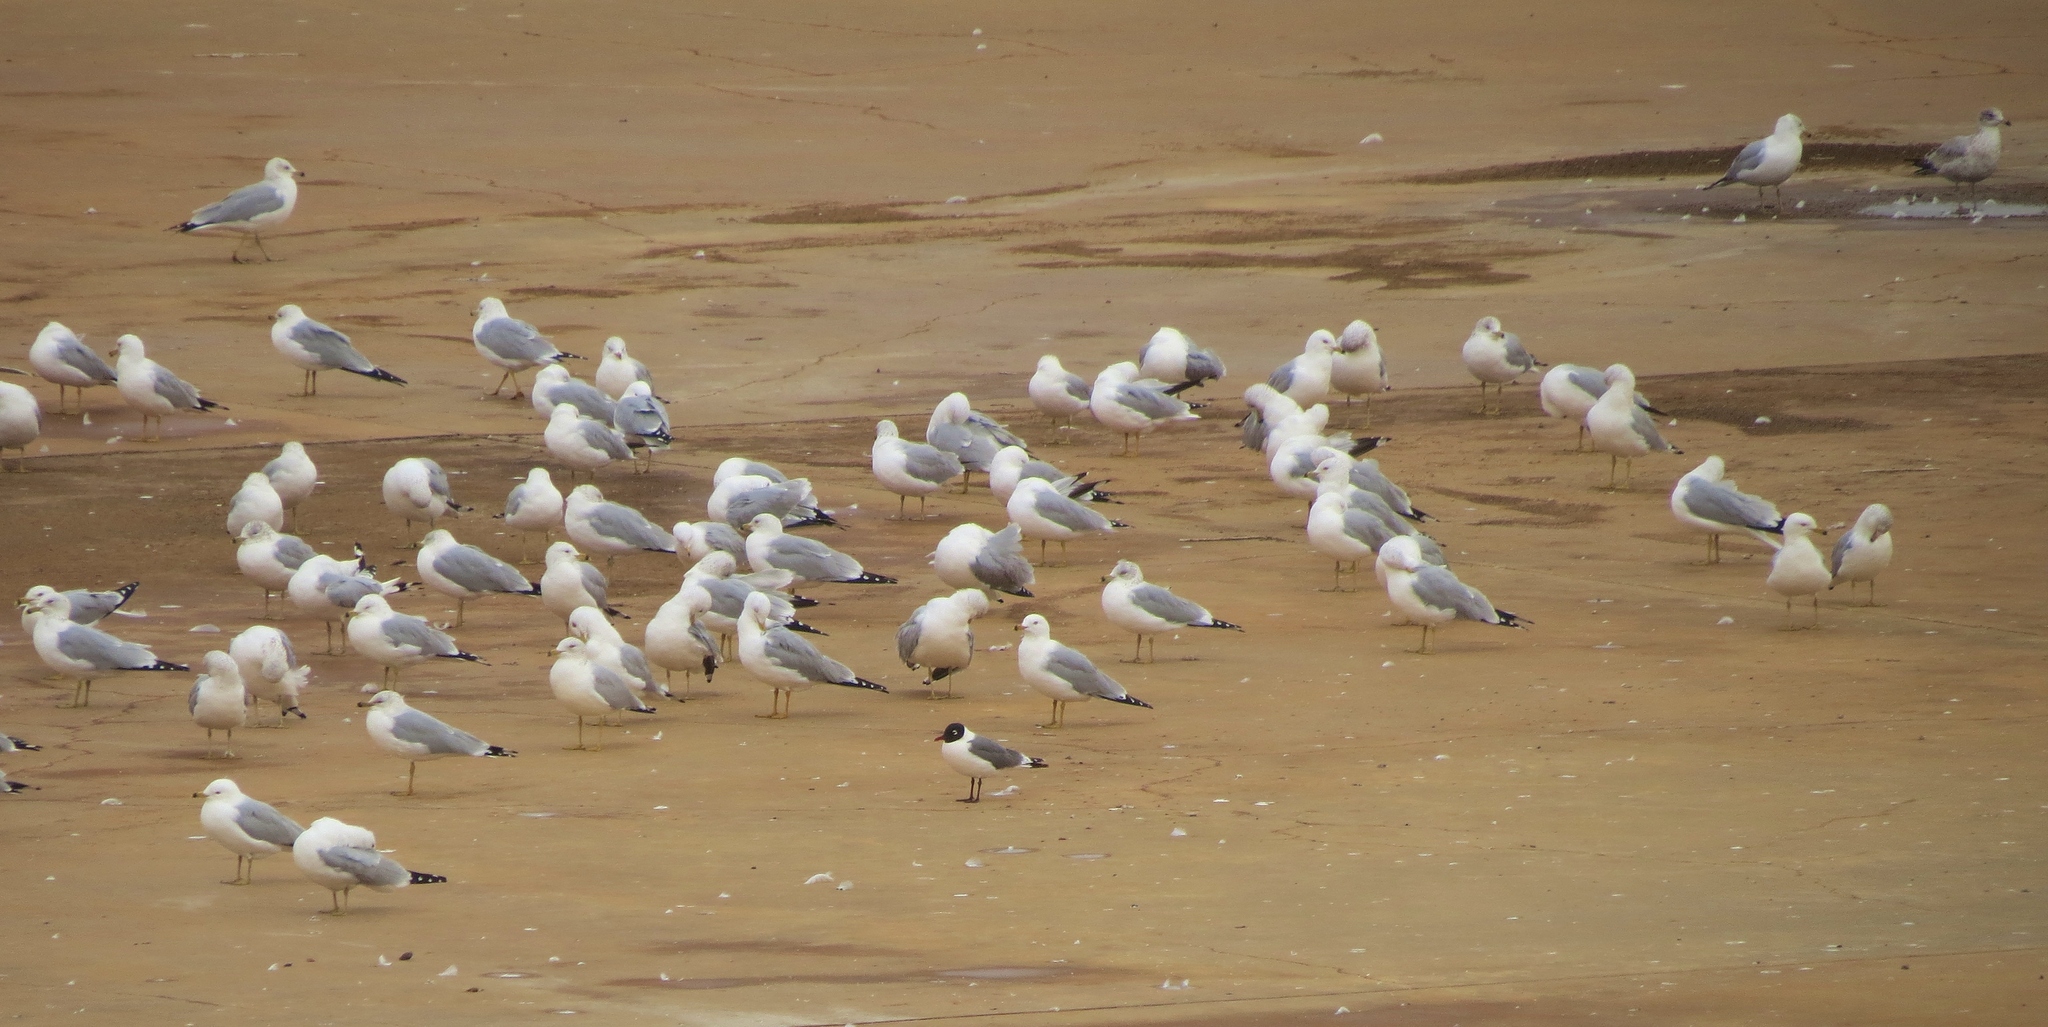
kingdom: Animalia
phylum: Chordata
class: Aves
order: Charadriiformes
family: Laridae
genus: Larus
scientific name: Larus delawarensis
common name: Ring-billed gull
